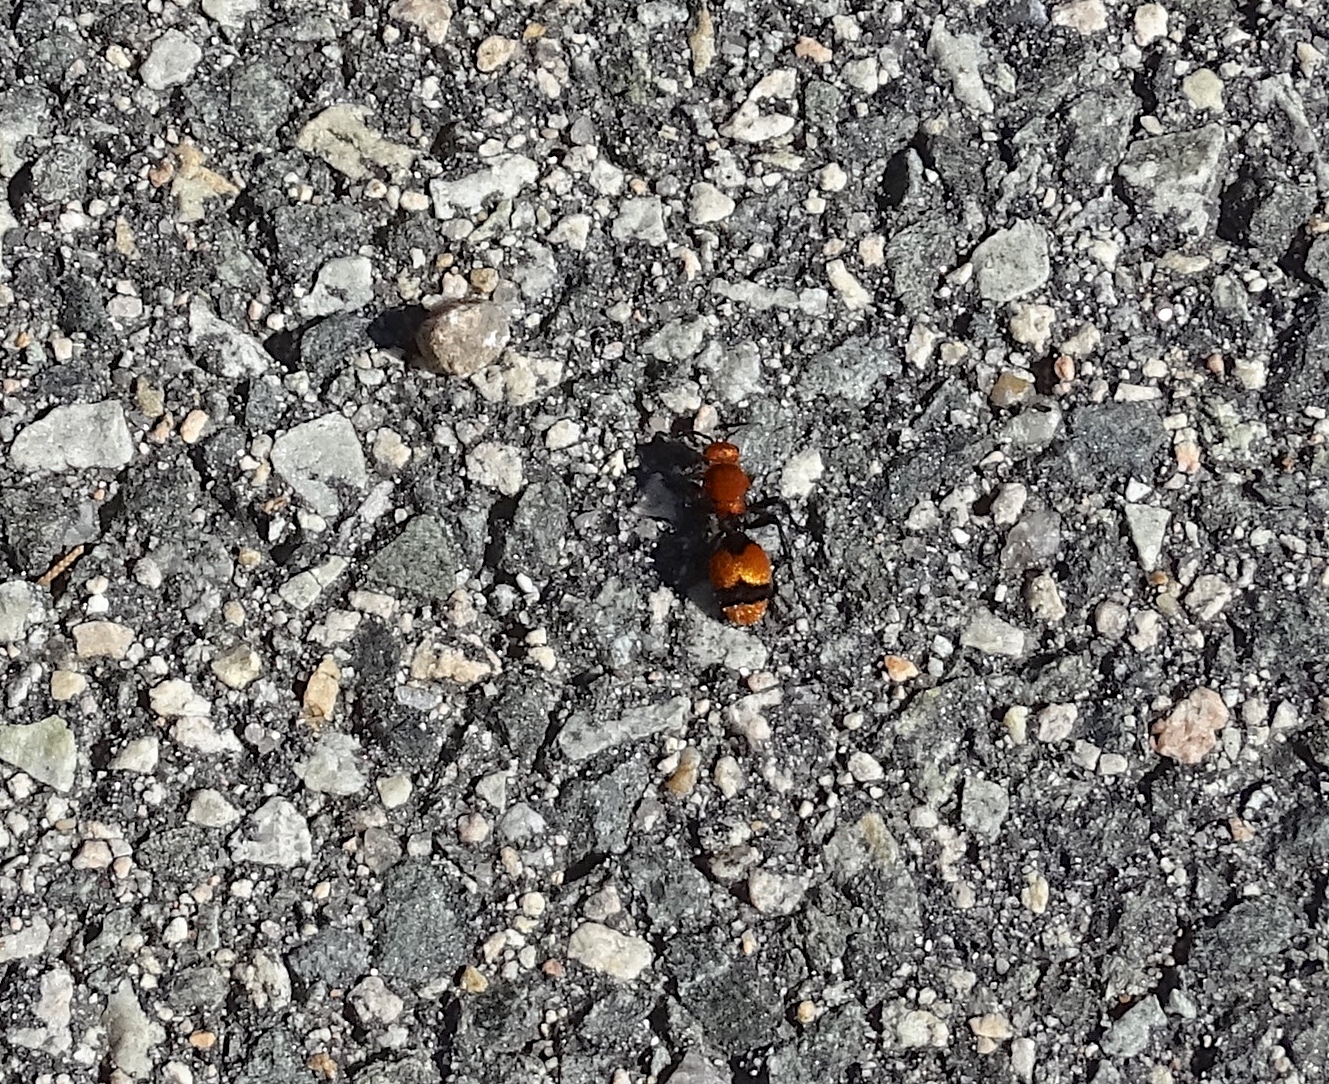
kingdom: Animalia
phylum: Arthropoda
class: Insecta
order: Hymenoptera
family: Mutillidae
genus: Dasymutilla
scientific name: Dasymutilla occidentalis
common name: Common eastern velvet ant
